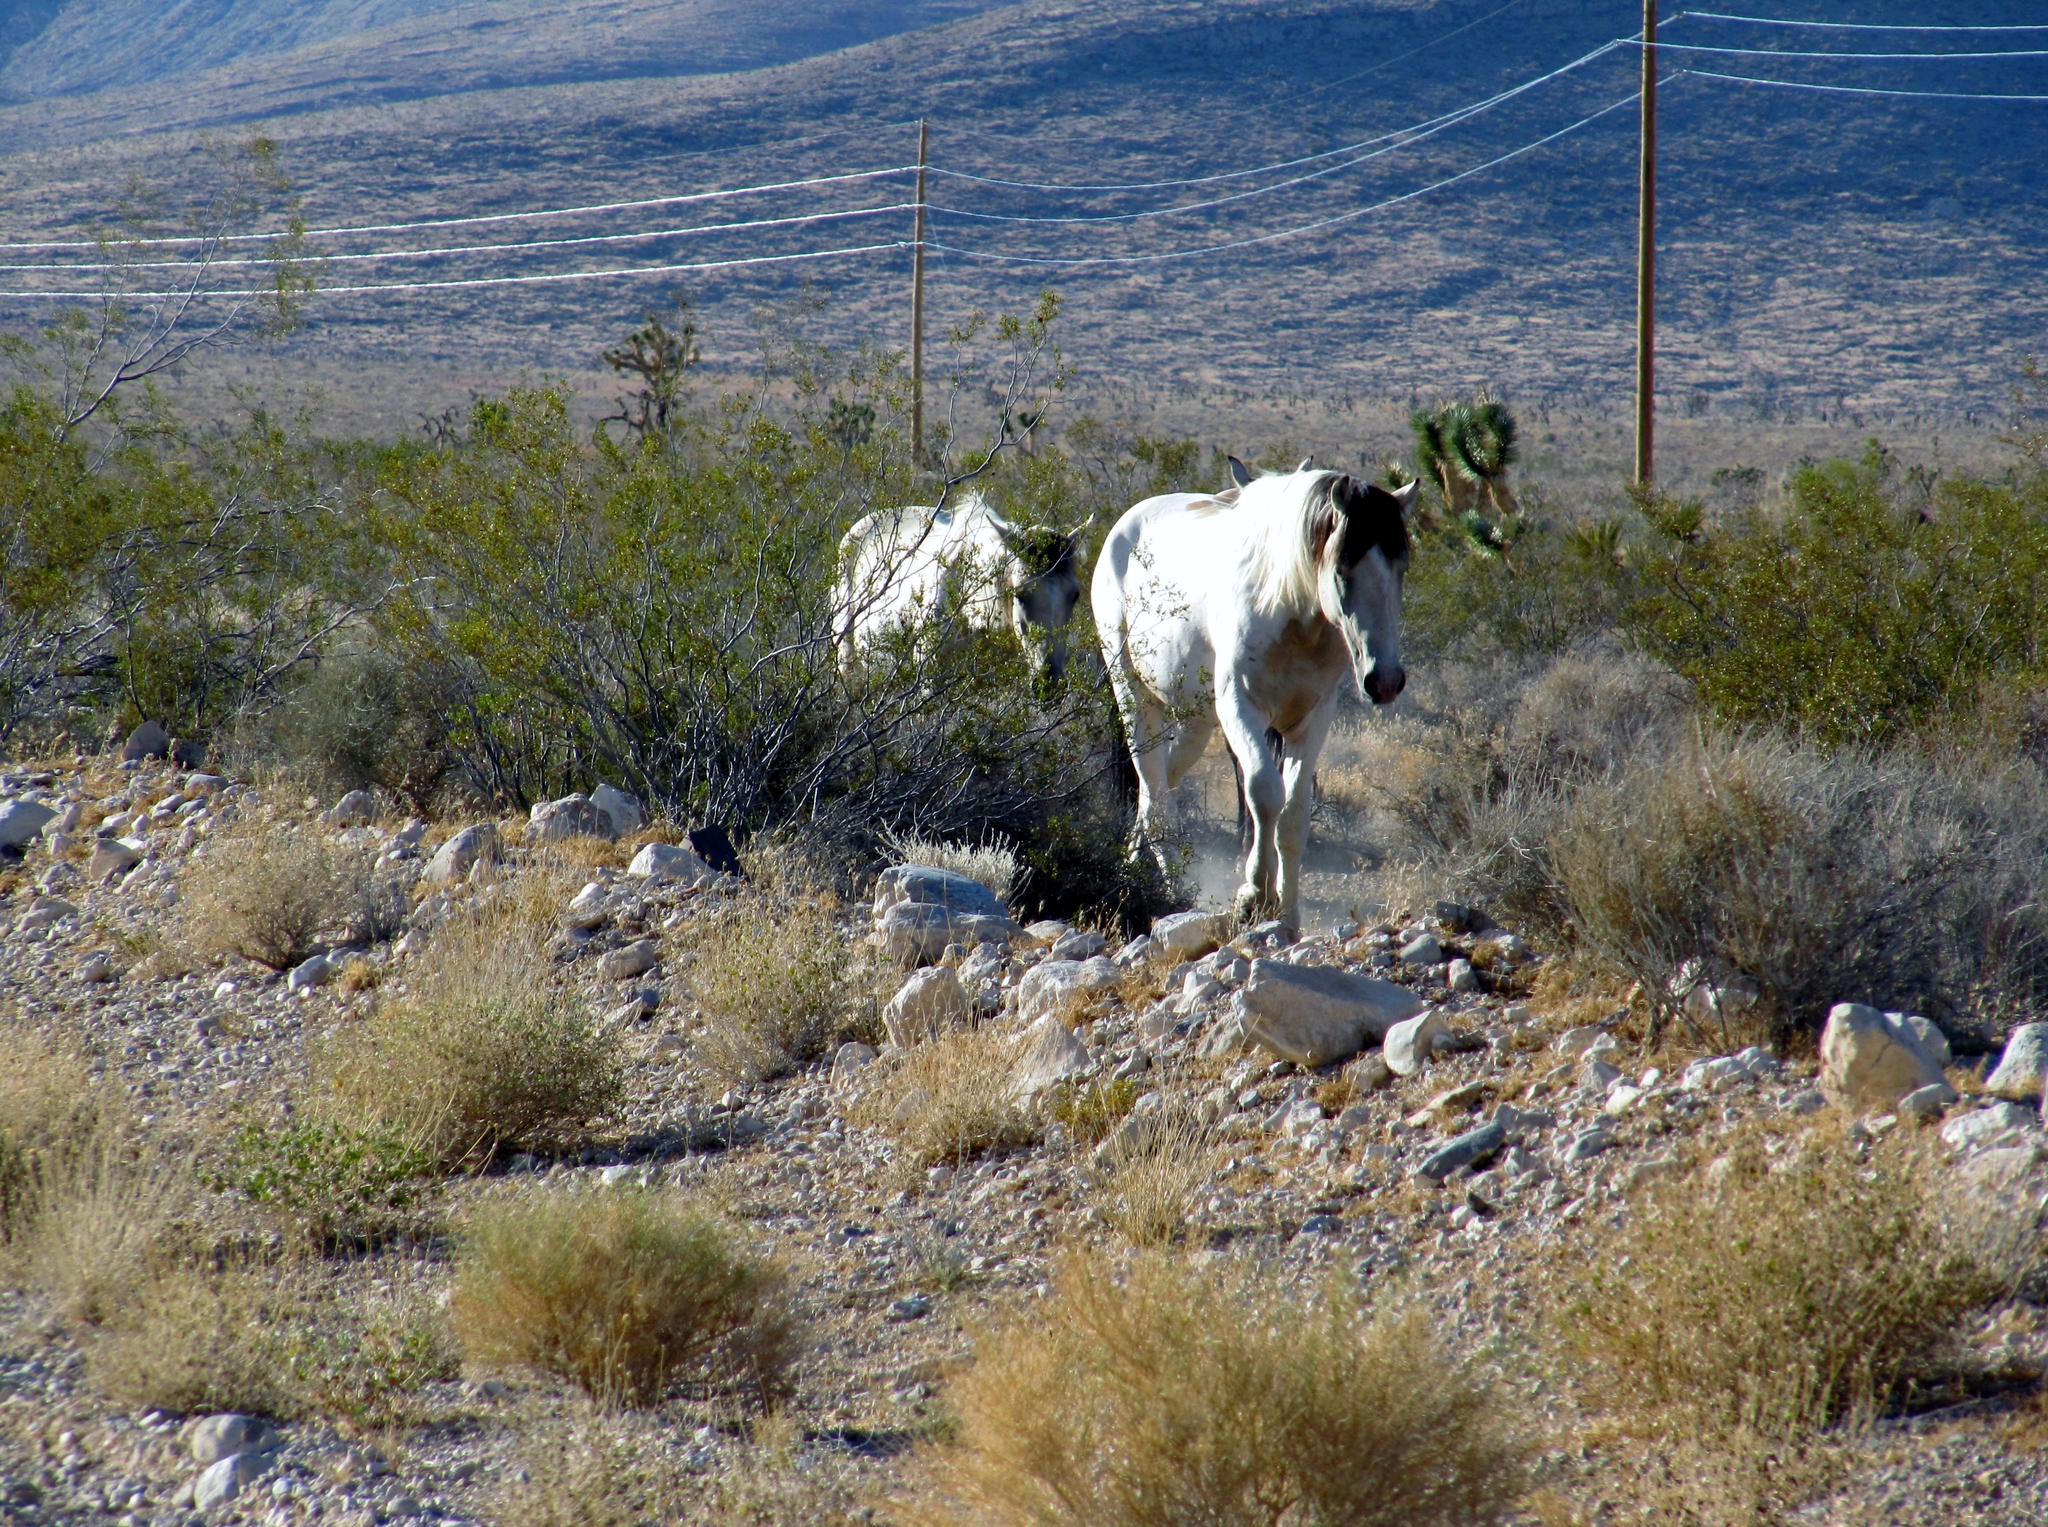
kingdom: Animalia
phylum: Chordata
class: Mammalia
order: Perissodactyla
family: Equidae
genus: Equus
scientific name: Equus caballus
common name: Horse
